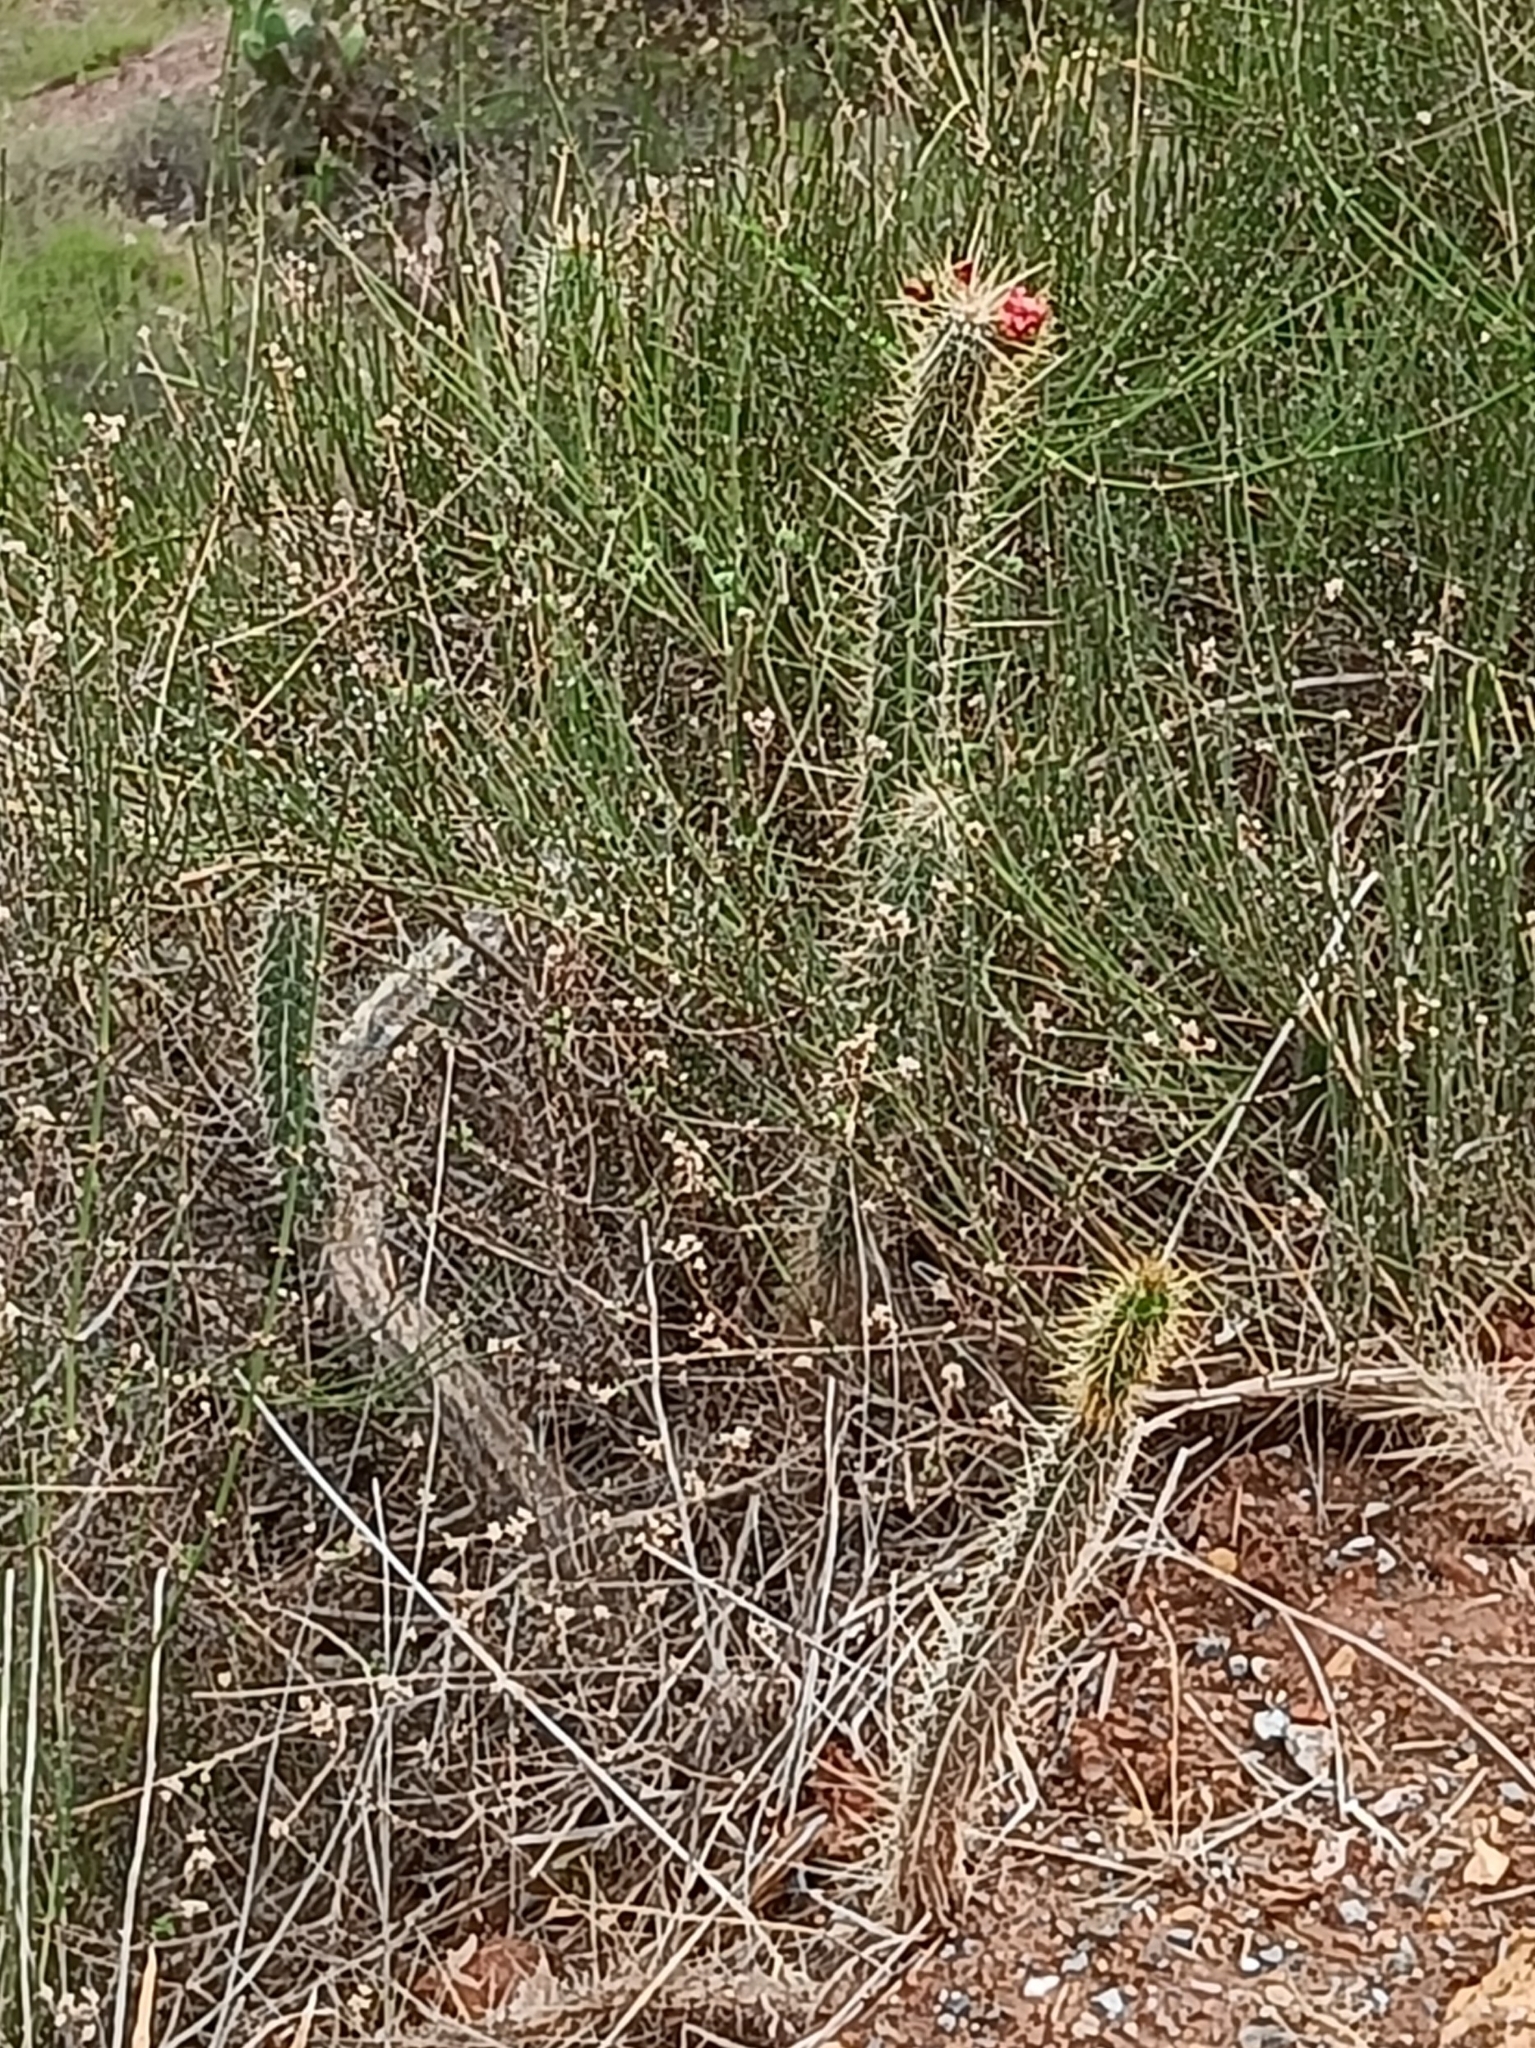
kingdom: Plantae
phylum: Tracheophyta
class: Magnoliopsida
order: Caryophyllales
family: Cactaceae
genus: Corryocactus
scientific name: Corryocactus erectus
